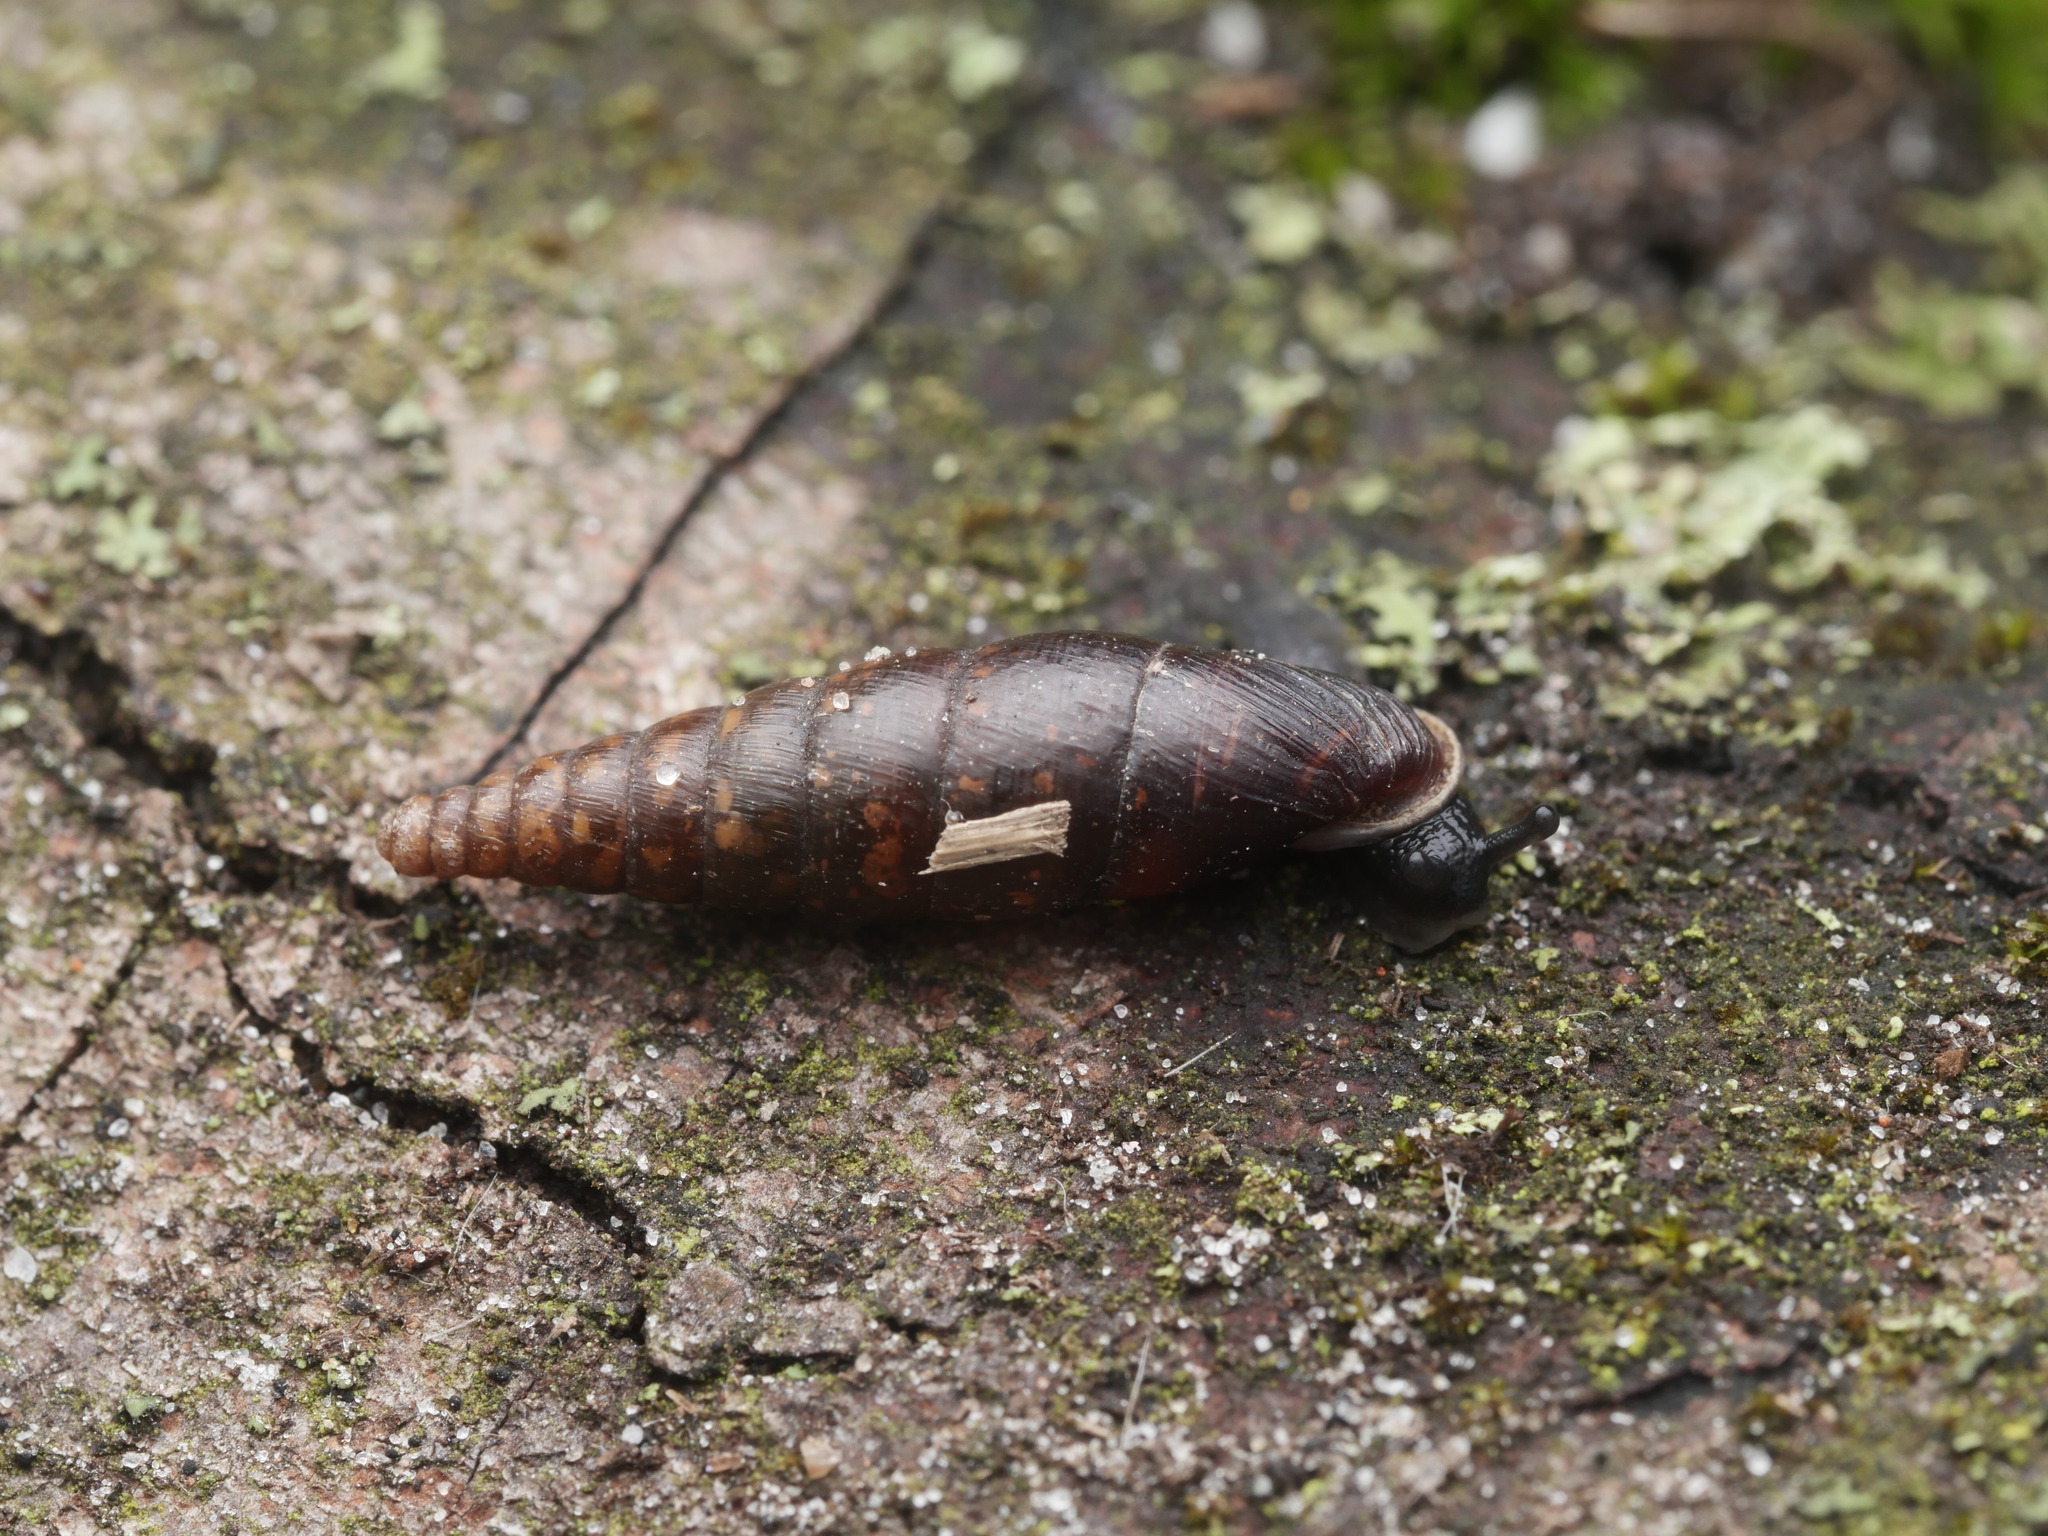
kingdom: Animalia
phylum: Mollusca
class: Gastropoda
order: Stylommatophora
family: Clausiliidae
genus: Cochlodina
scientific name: Cochlodina laminata
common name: Plaited door snail
